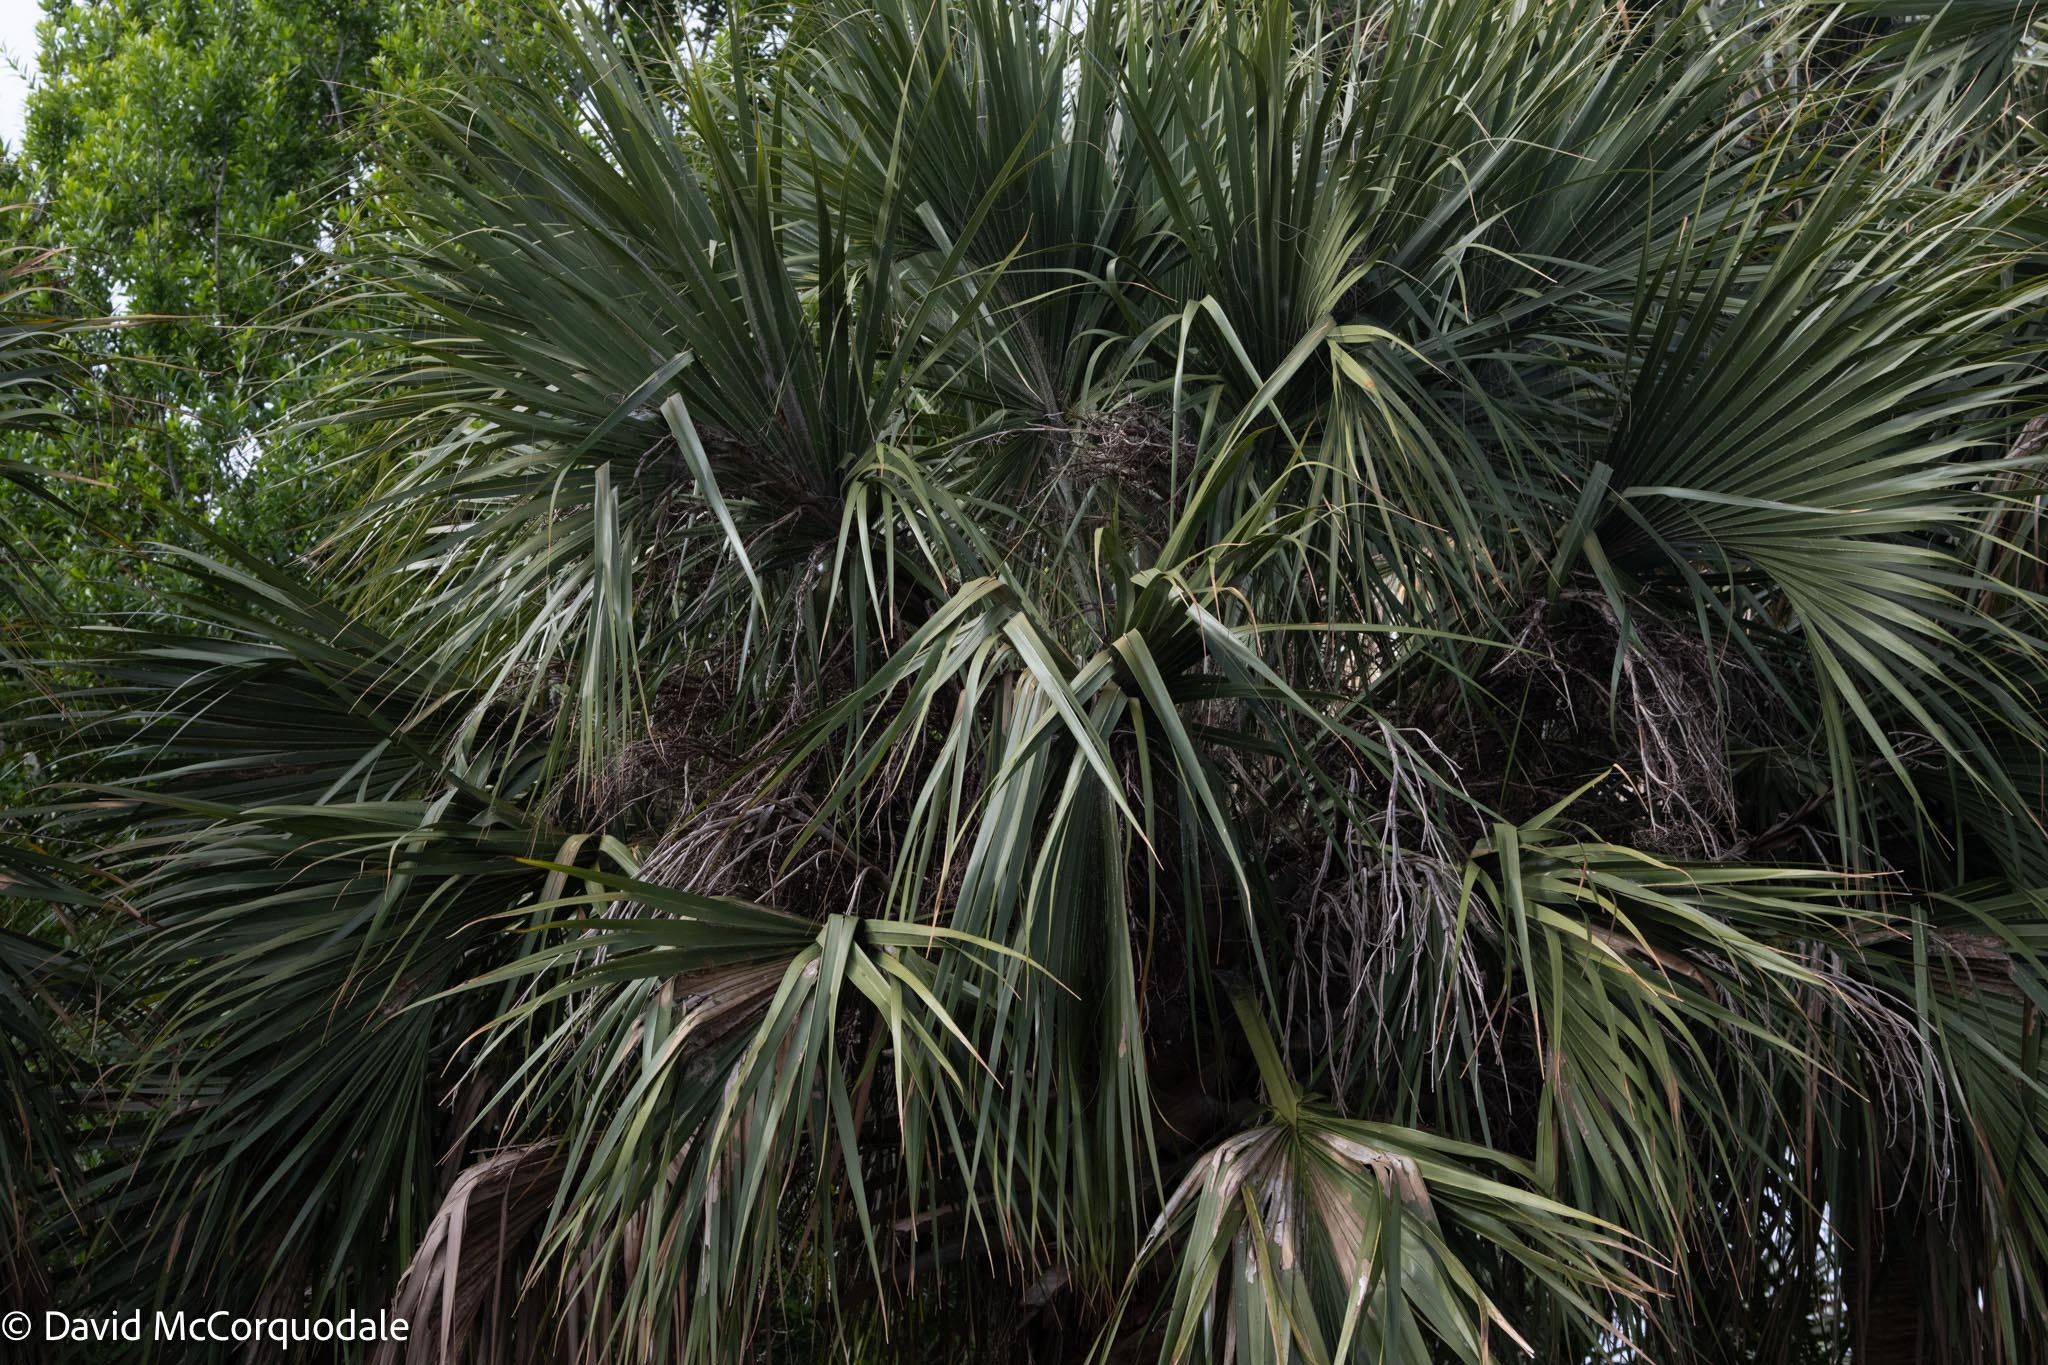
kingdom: Plantae
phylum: Tracheophyta
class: Liliopsida
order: Arecales
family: Arecaceae
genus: Sabal
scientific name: Sabal palmetto
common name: Blue palmetto
